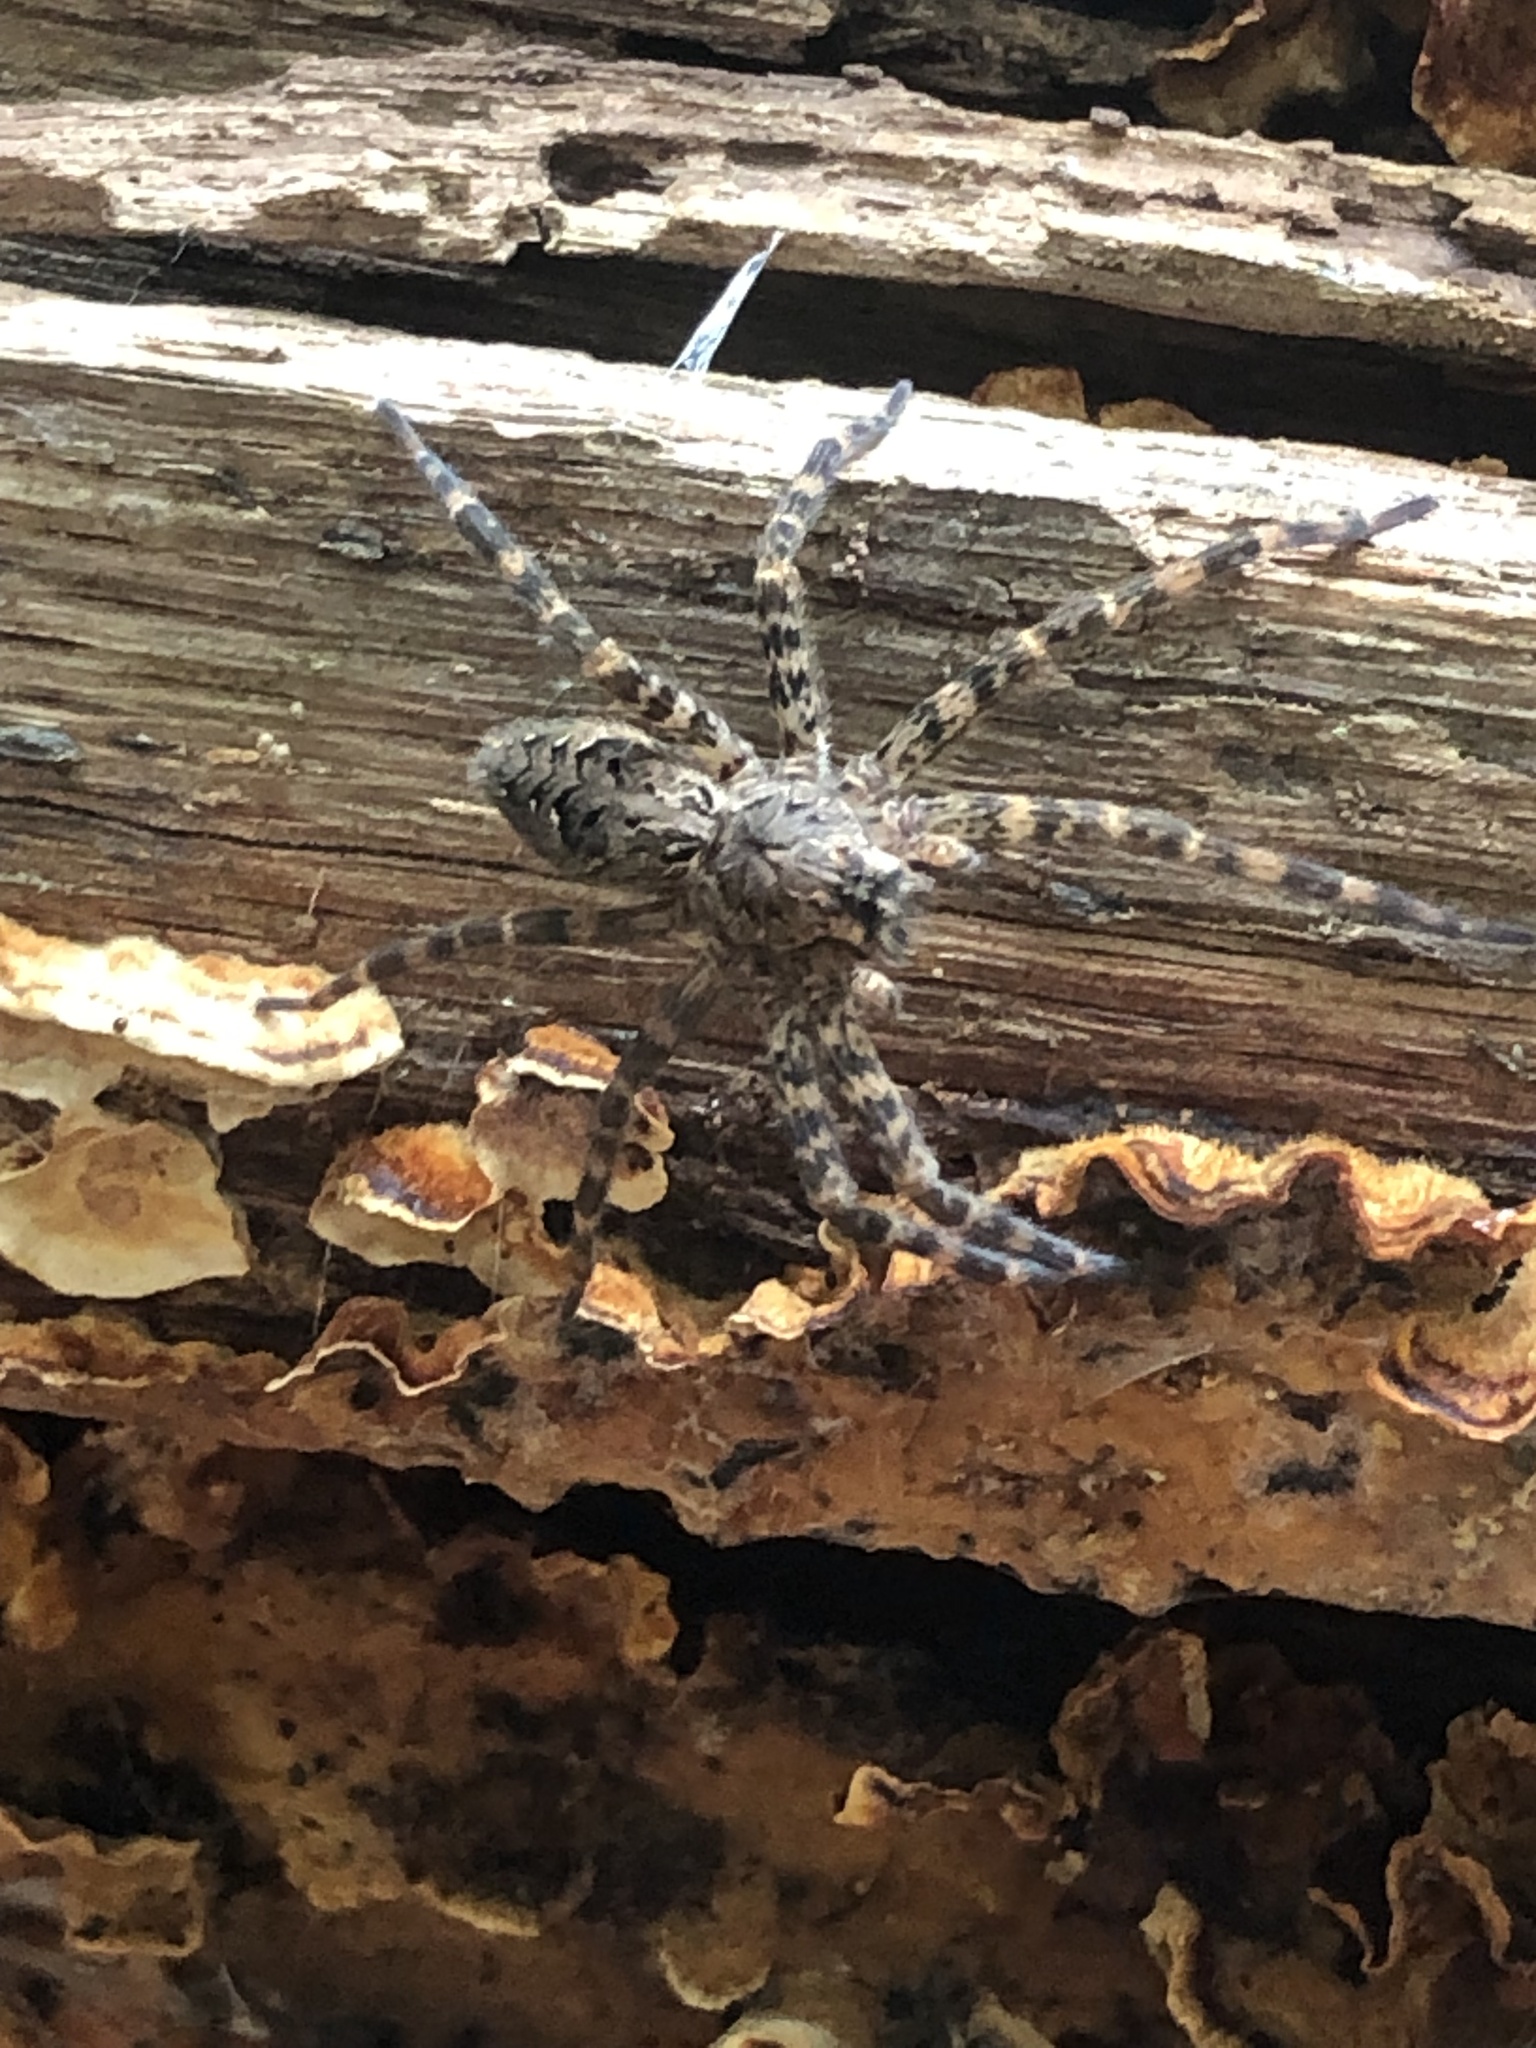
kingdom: Animalia
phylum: Arthropoda
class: Arachnida
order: Araneae
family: Pisauridae
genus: Dolomedes
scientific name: Dolomedes tenebrosus
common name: Dark fishing spider
